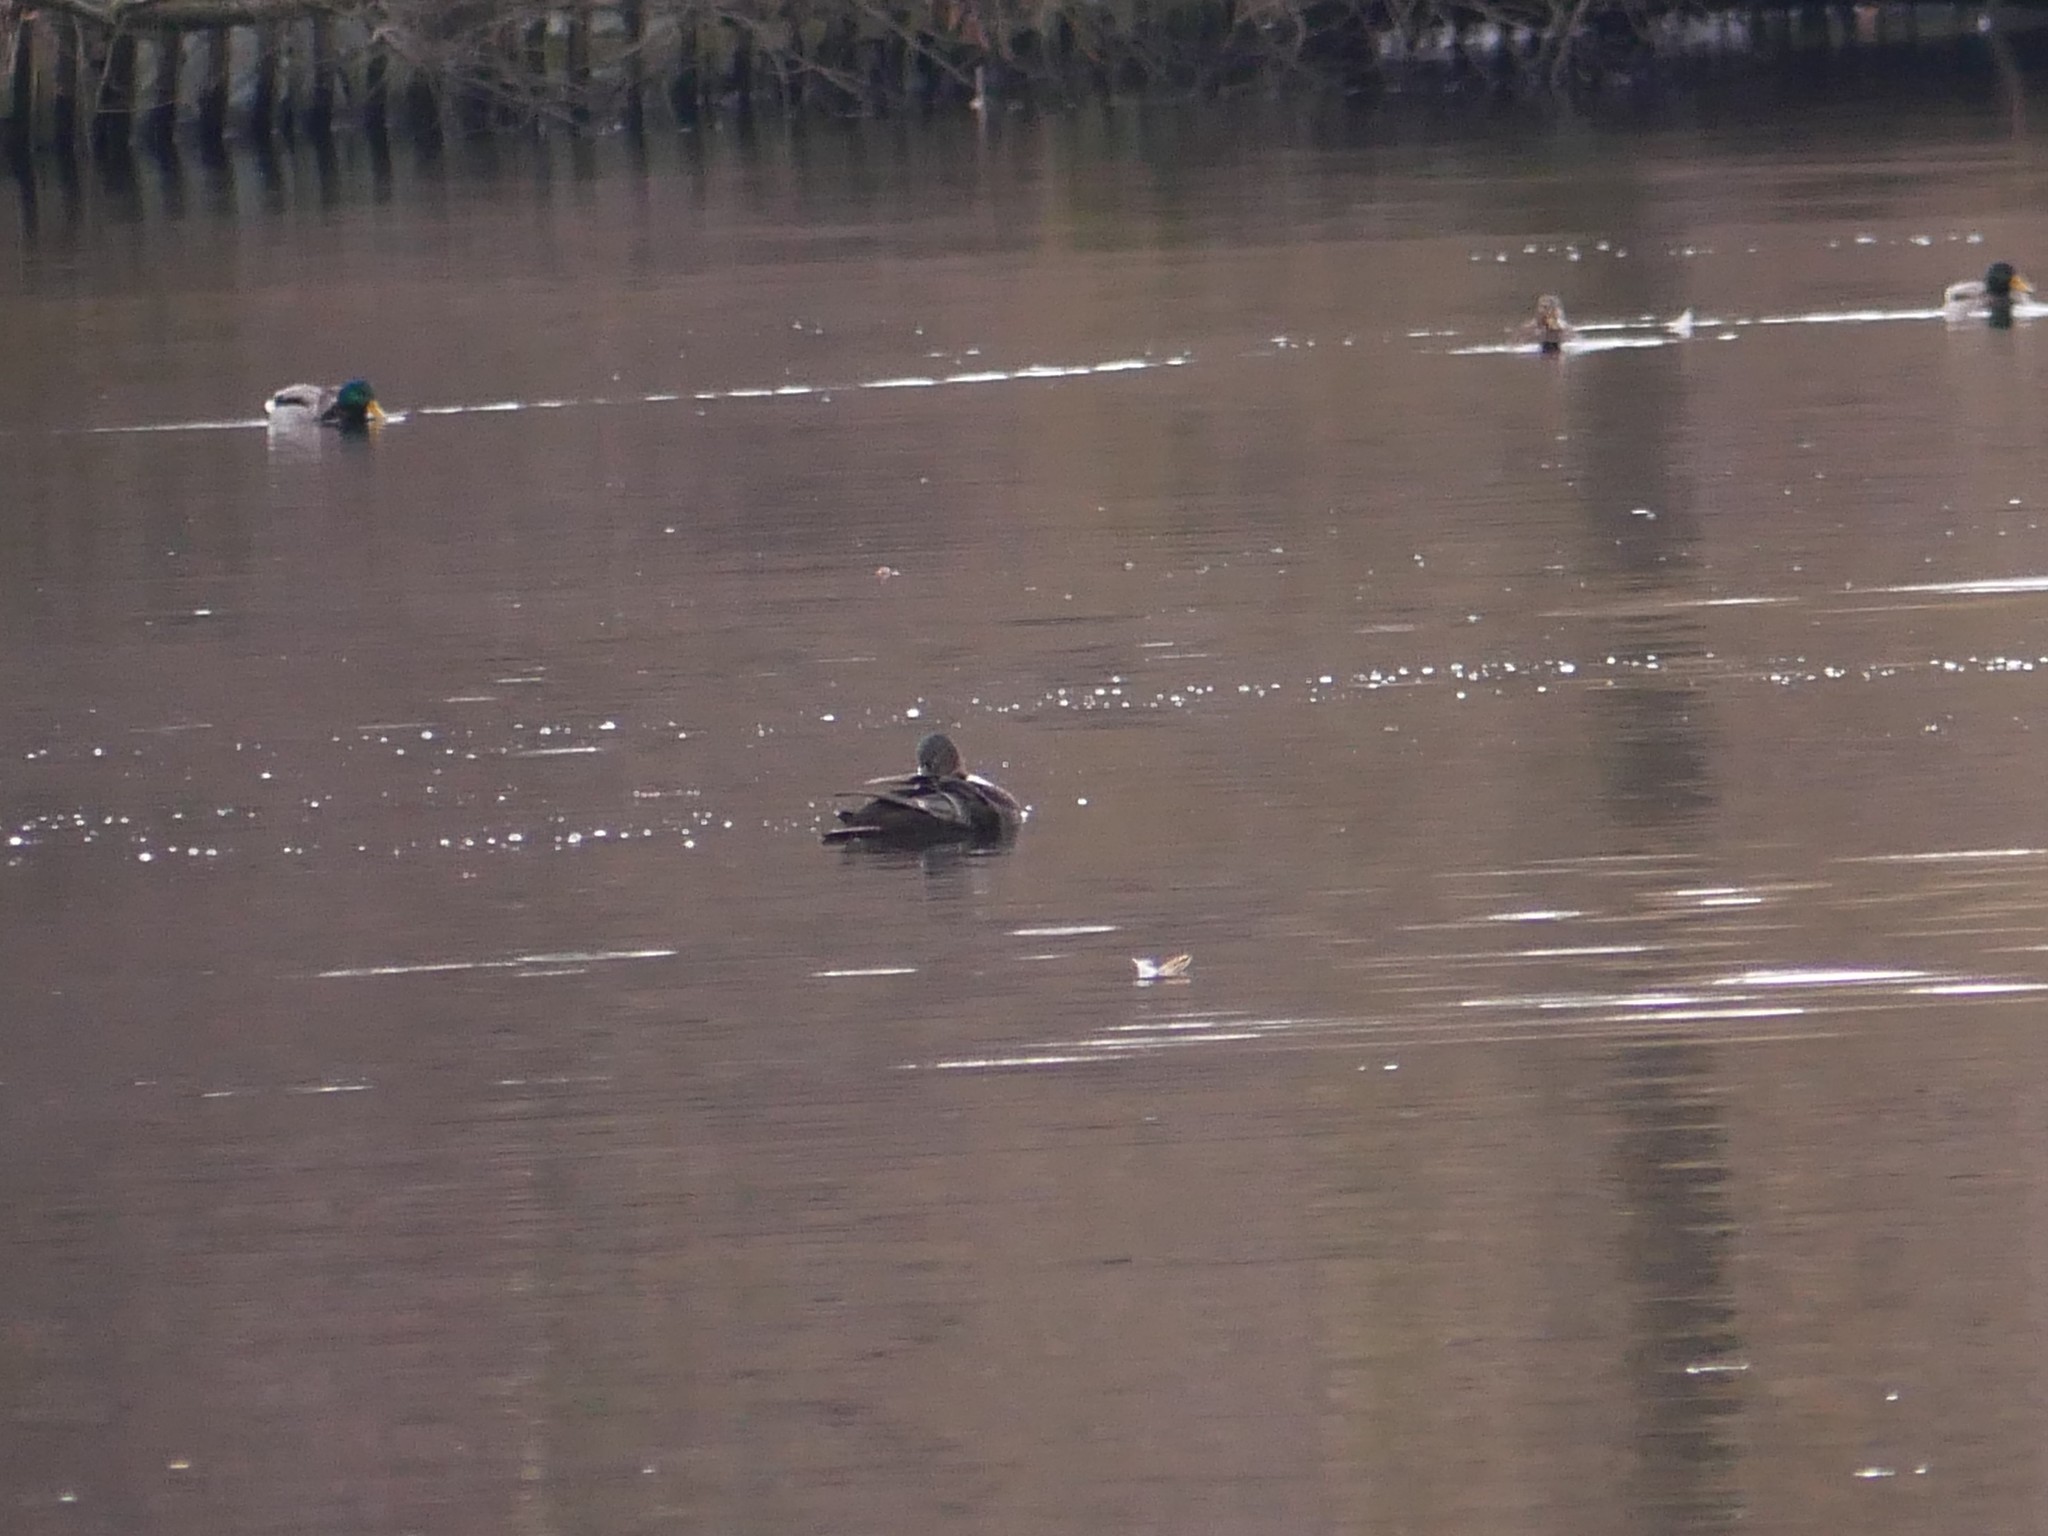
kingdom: Animalia
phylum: Chordata
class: Aves
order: Anseriformes
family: Anatidae
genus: Anas
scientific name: Anas platyrhynchos
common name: Mallard
